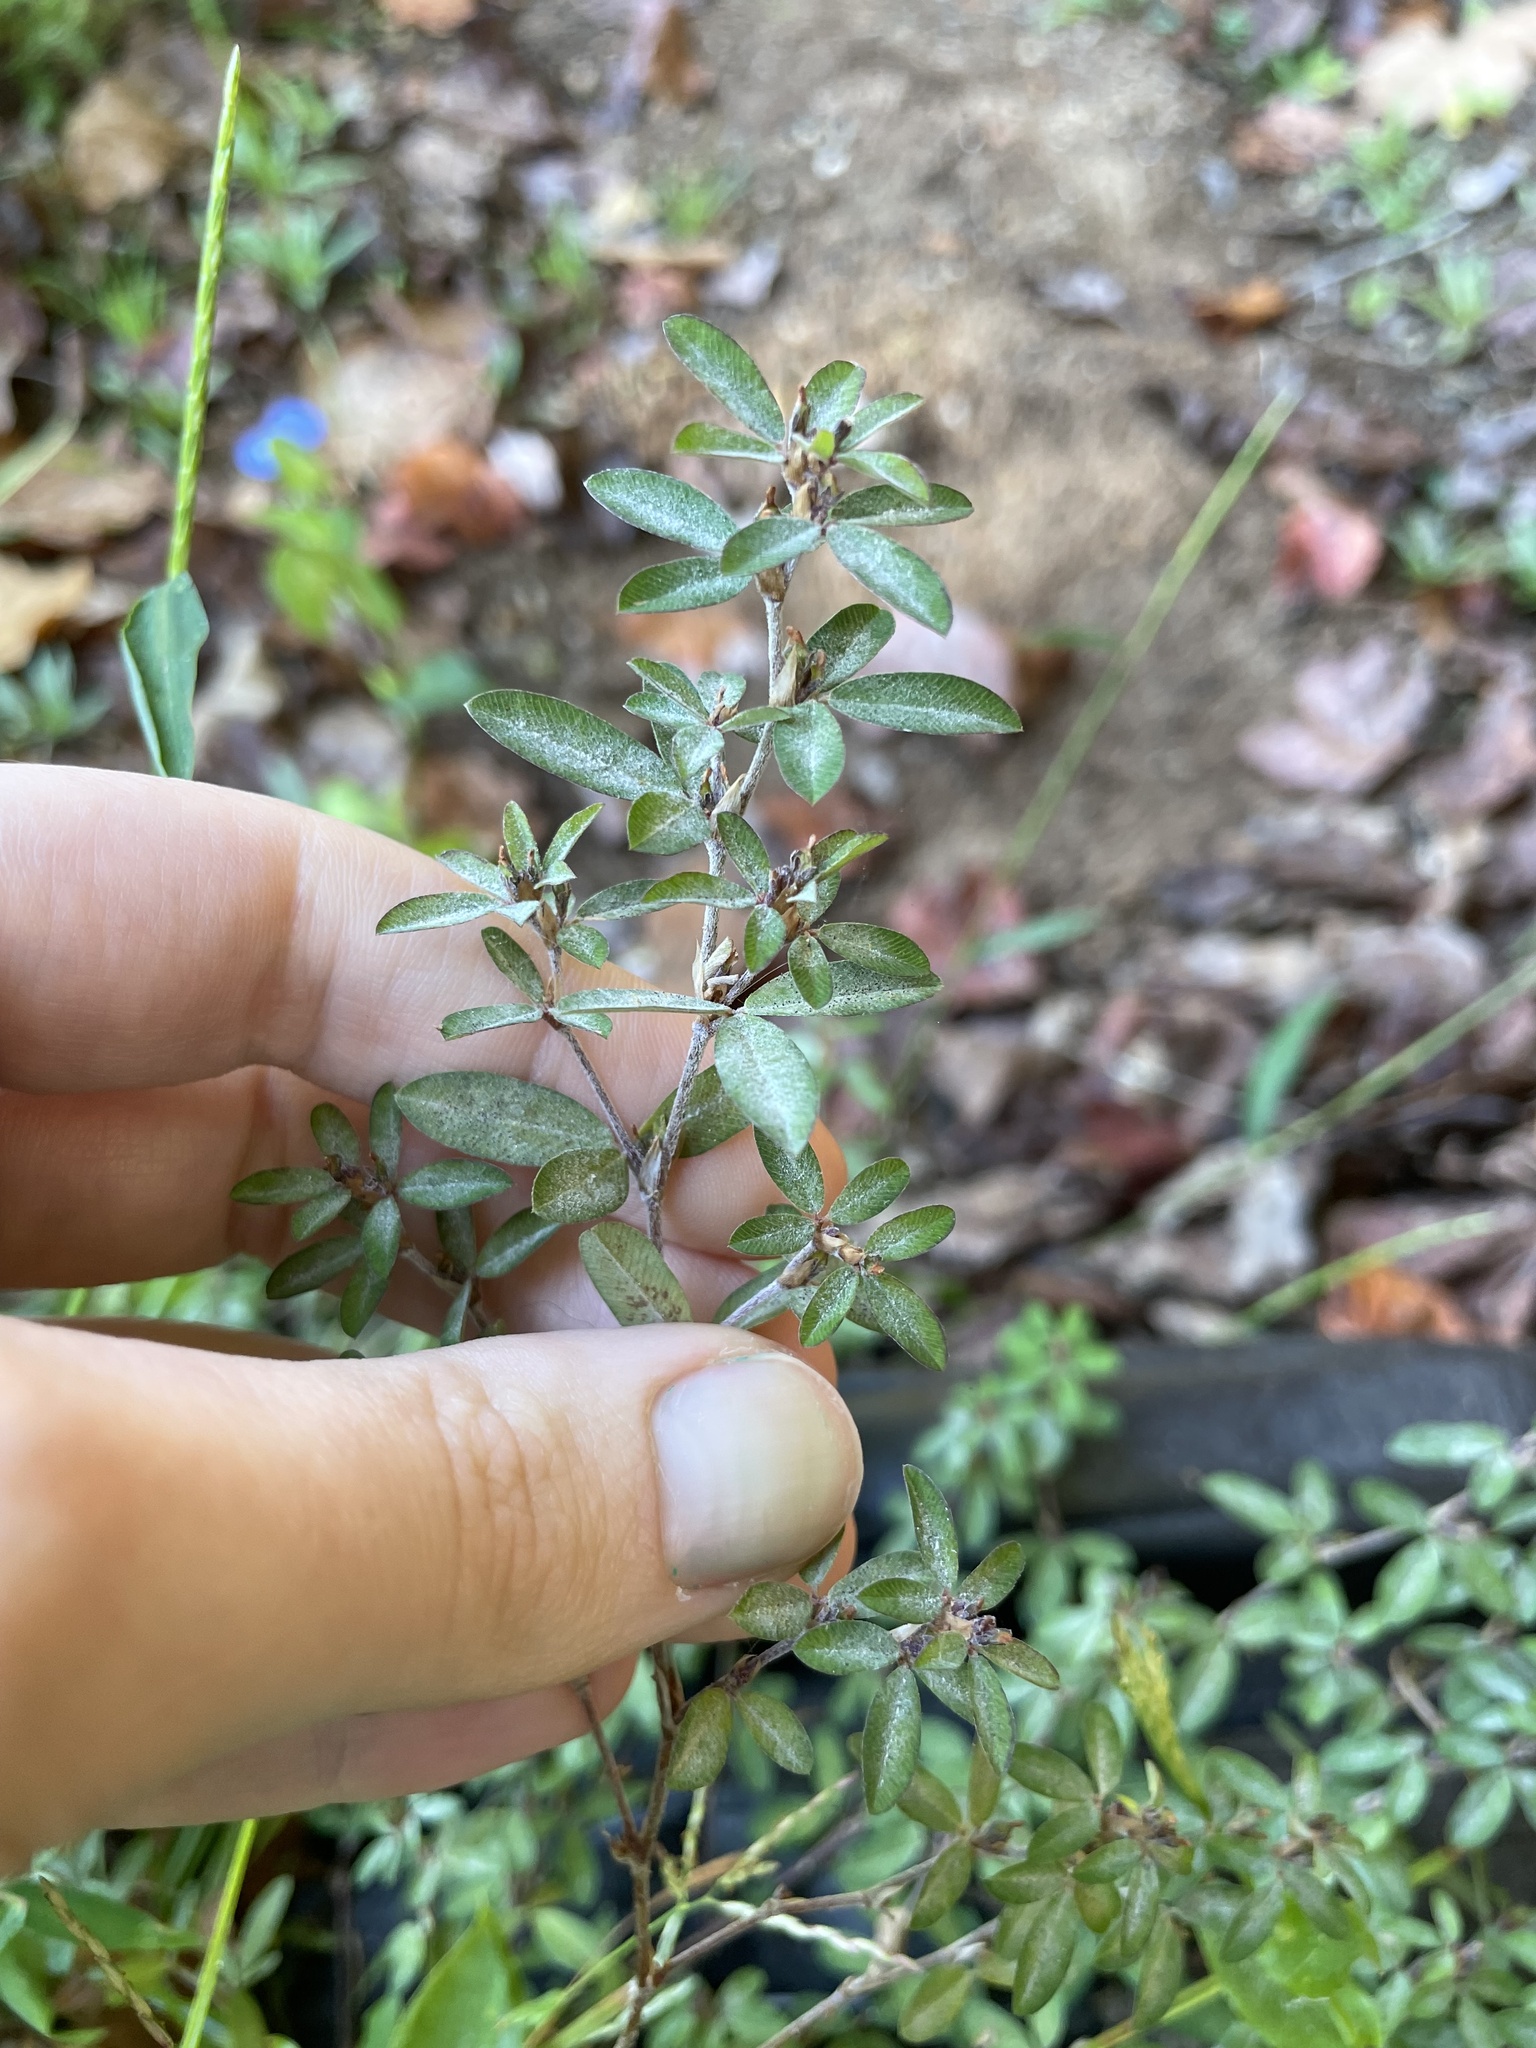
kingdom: Plantae
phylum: Tracheophyta
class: Magnoliopsida
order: Fabales
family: Fabaceae
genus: Kummerowia
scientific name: Kummerowia striata
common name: Japanese clover
